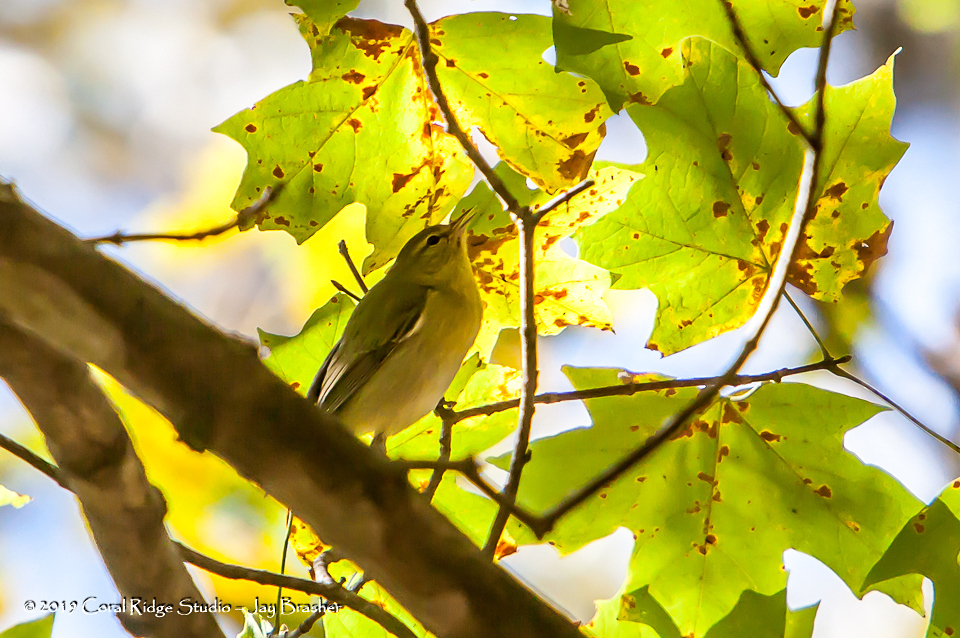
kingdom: Animalia
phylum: Chordata
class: Aves
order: Passeriformes
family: Parulidae
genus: Leiothlypis
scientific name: Leiothlypis peregrina
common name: Tennessee warbler
